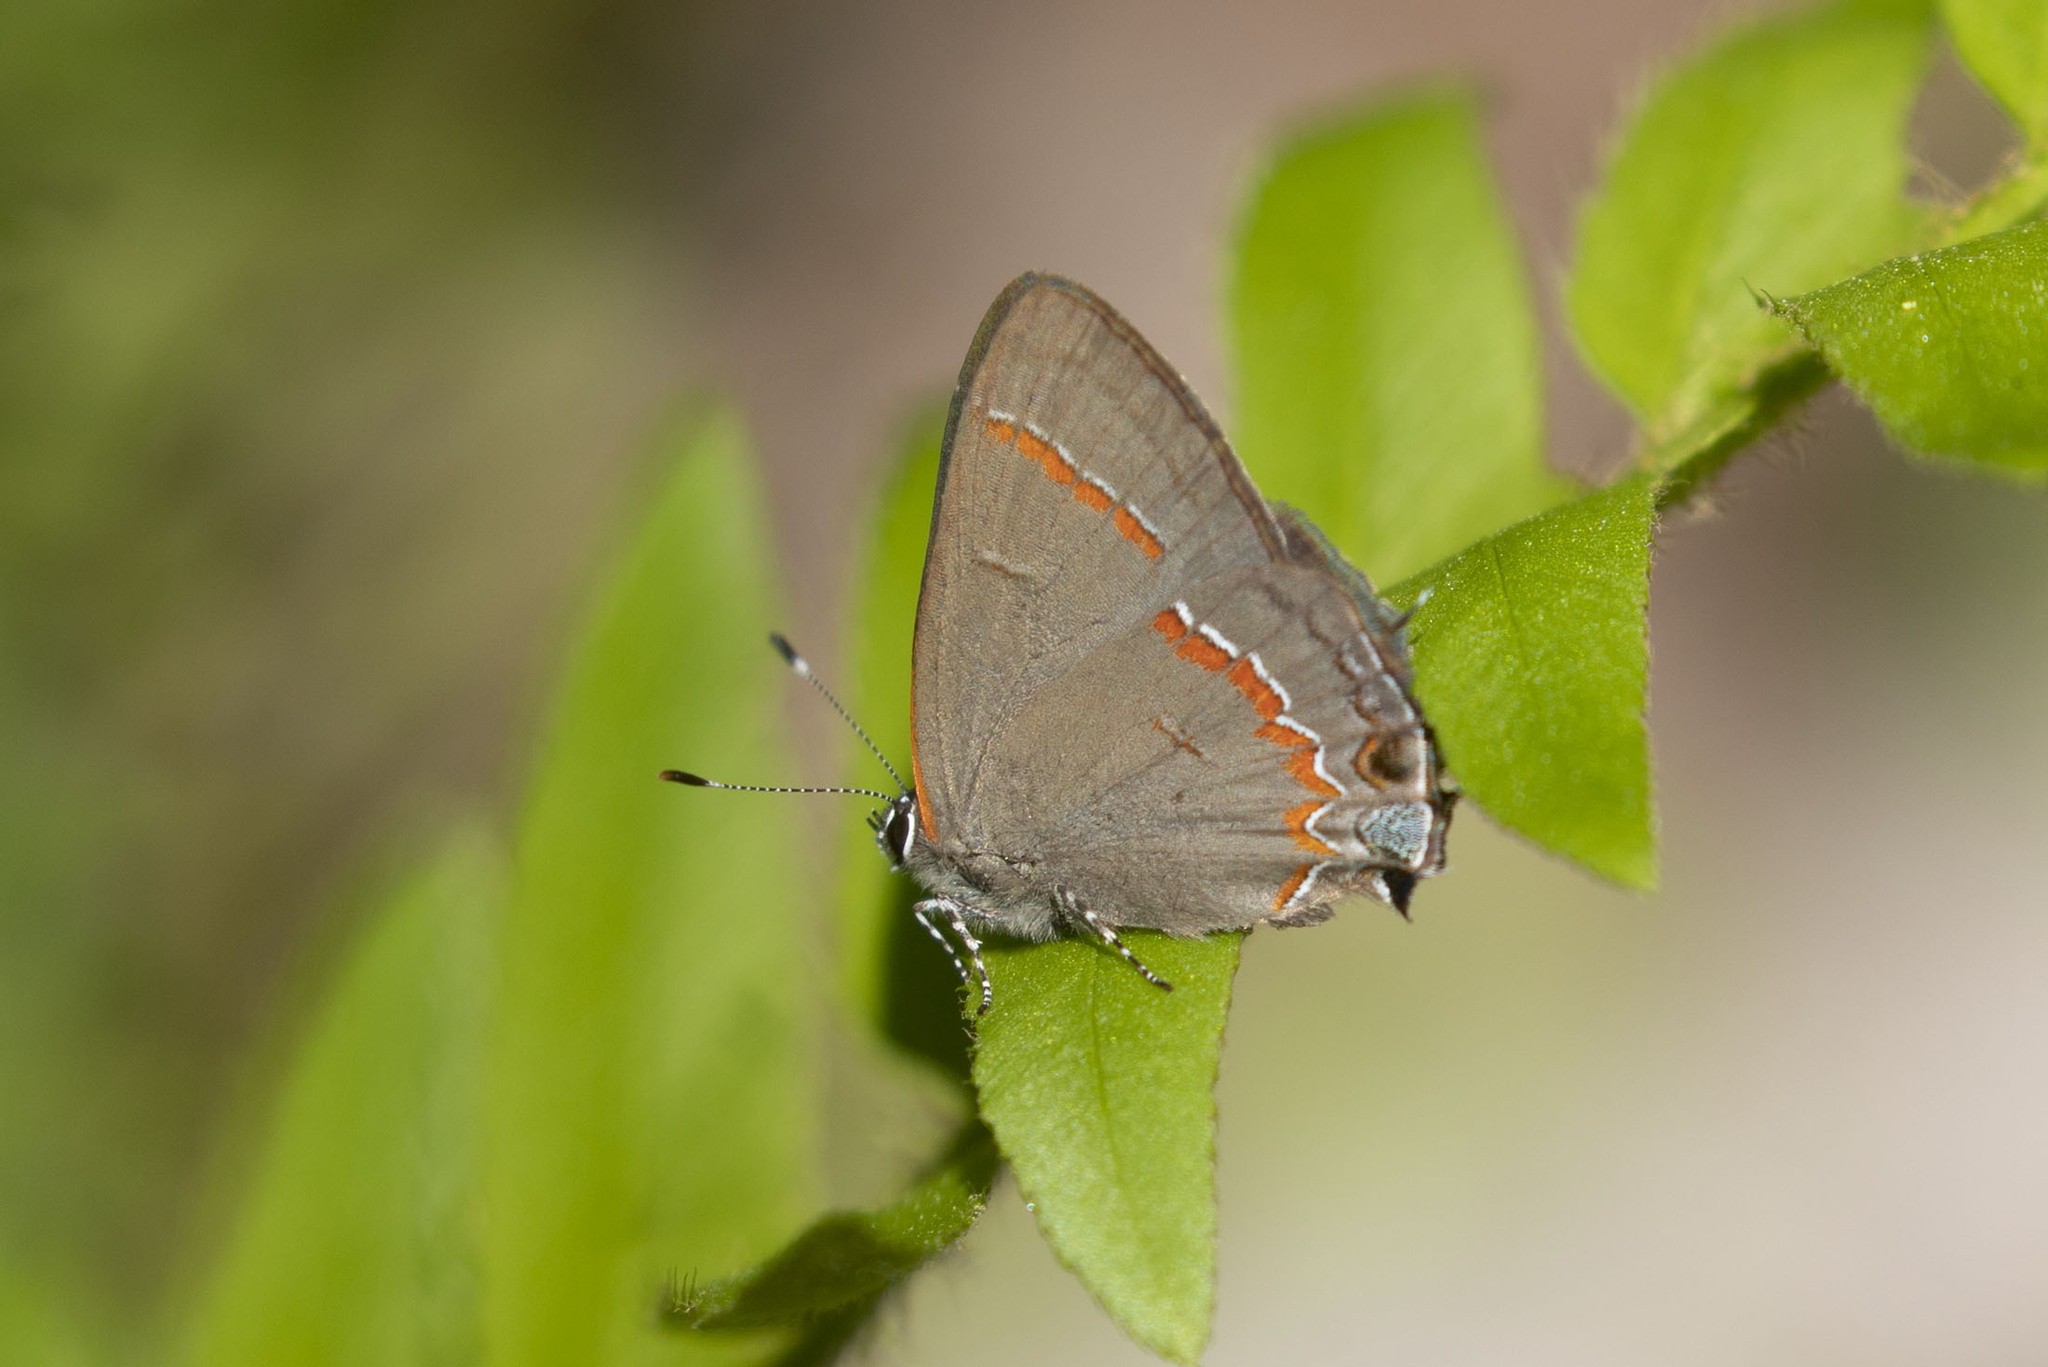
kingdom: Animalia
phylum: Arthropoda
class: Insecta
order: Lepidoptera
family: Lycaenidae
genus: Calycopis
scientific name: Calycopis cecrops
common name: Red-banded hairstreak
